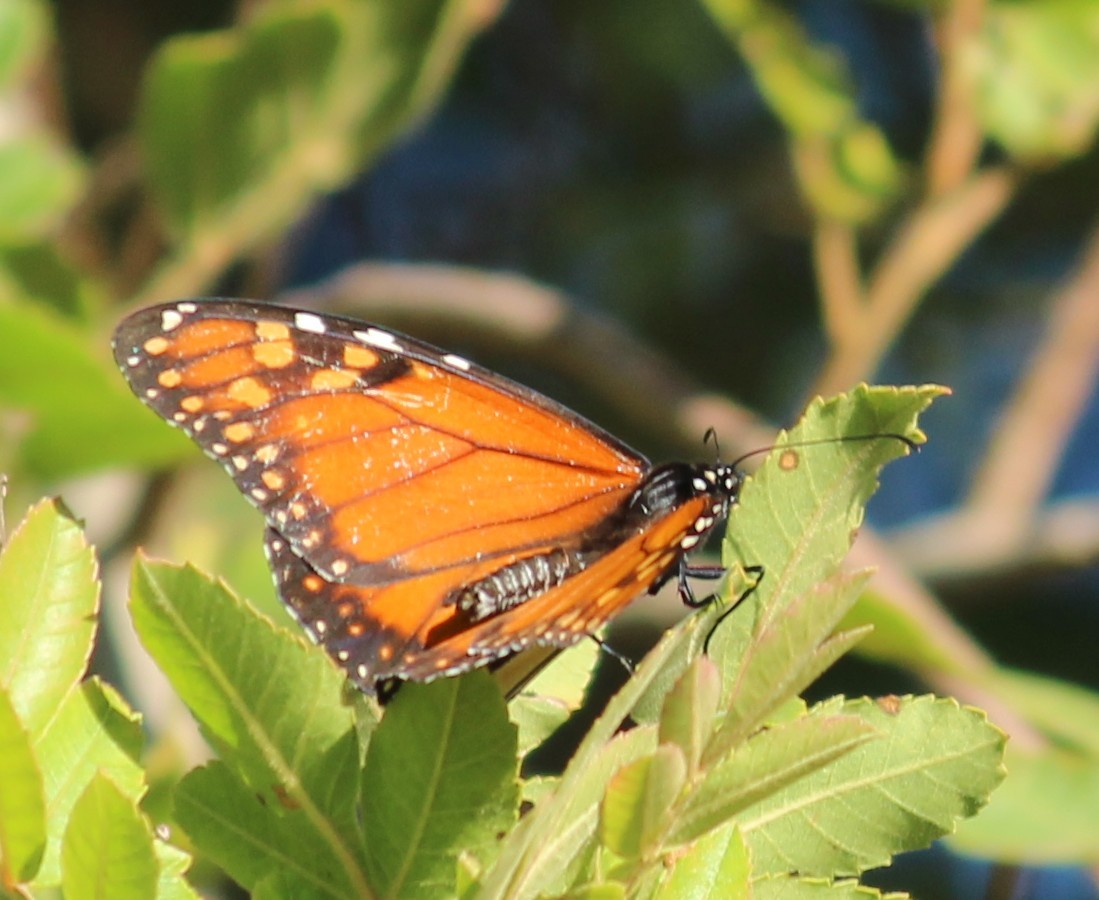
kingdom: Animalia
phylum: Arthropoda
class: Insecta
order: Lepidoptera
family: Nymphalidae
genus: Danaus
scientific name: Danaus erippus
